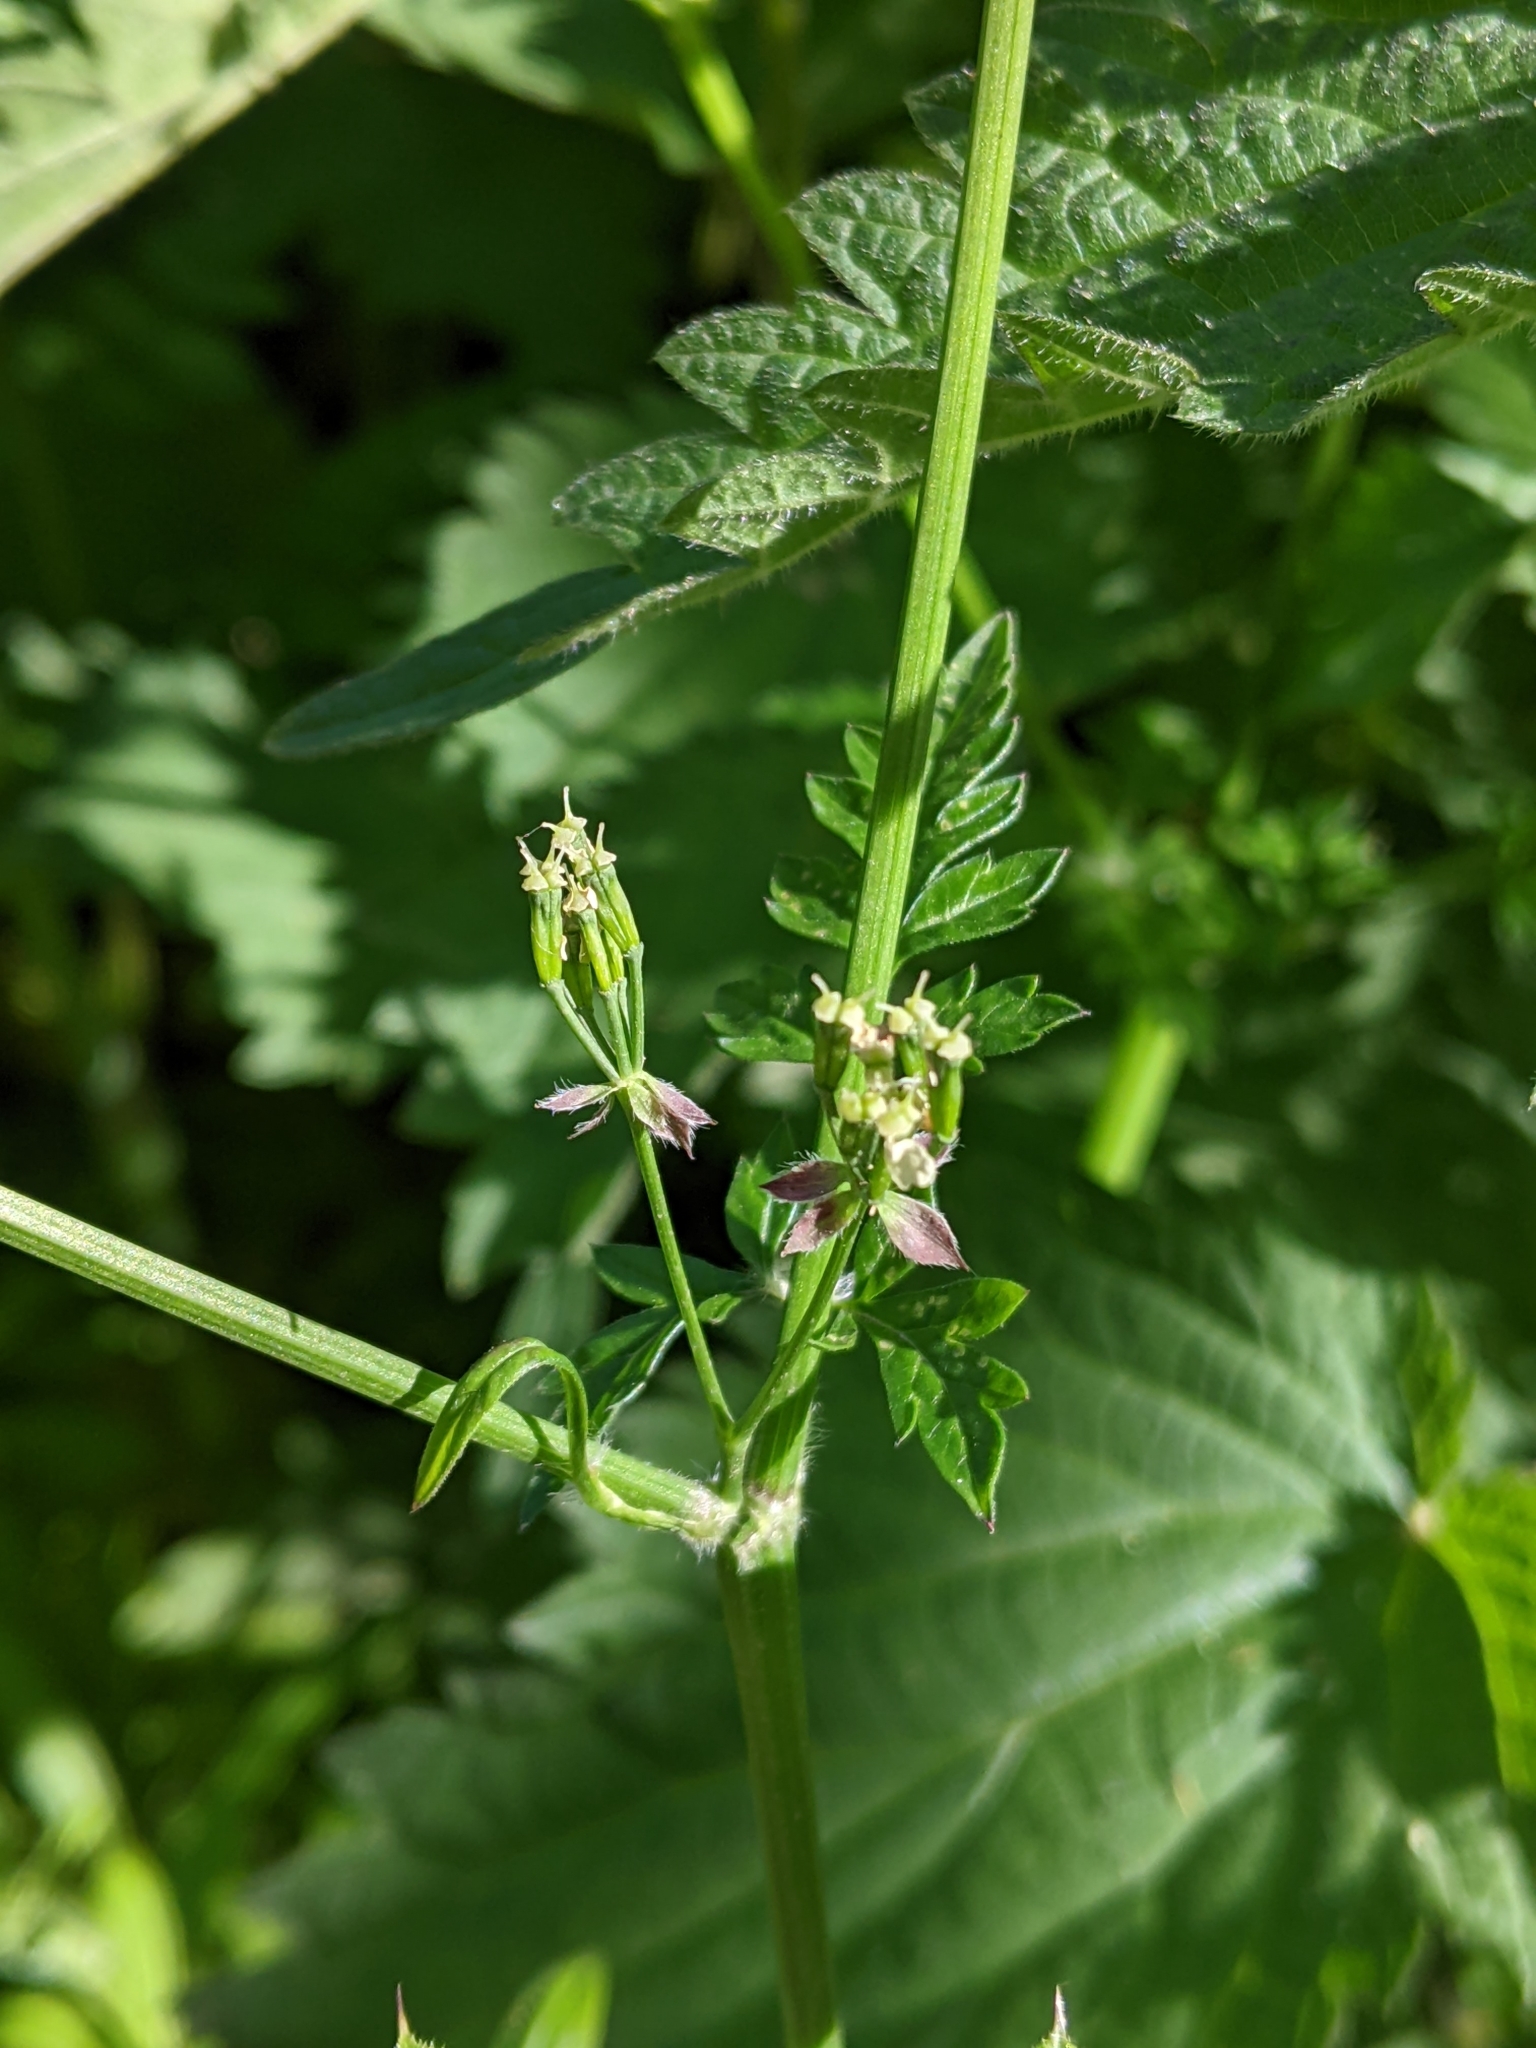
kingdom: Plantae
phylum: Tracheophyta
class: Magnoliopsida
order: Apiales
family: Apiaceae
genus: Anthriscus
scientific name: Anthriscus sylvestris
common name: Cow parsley
